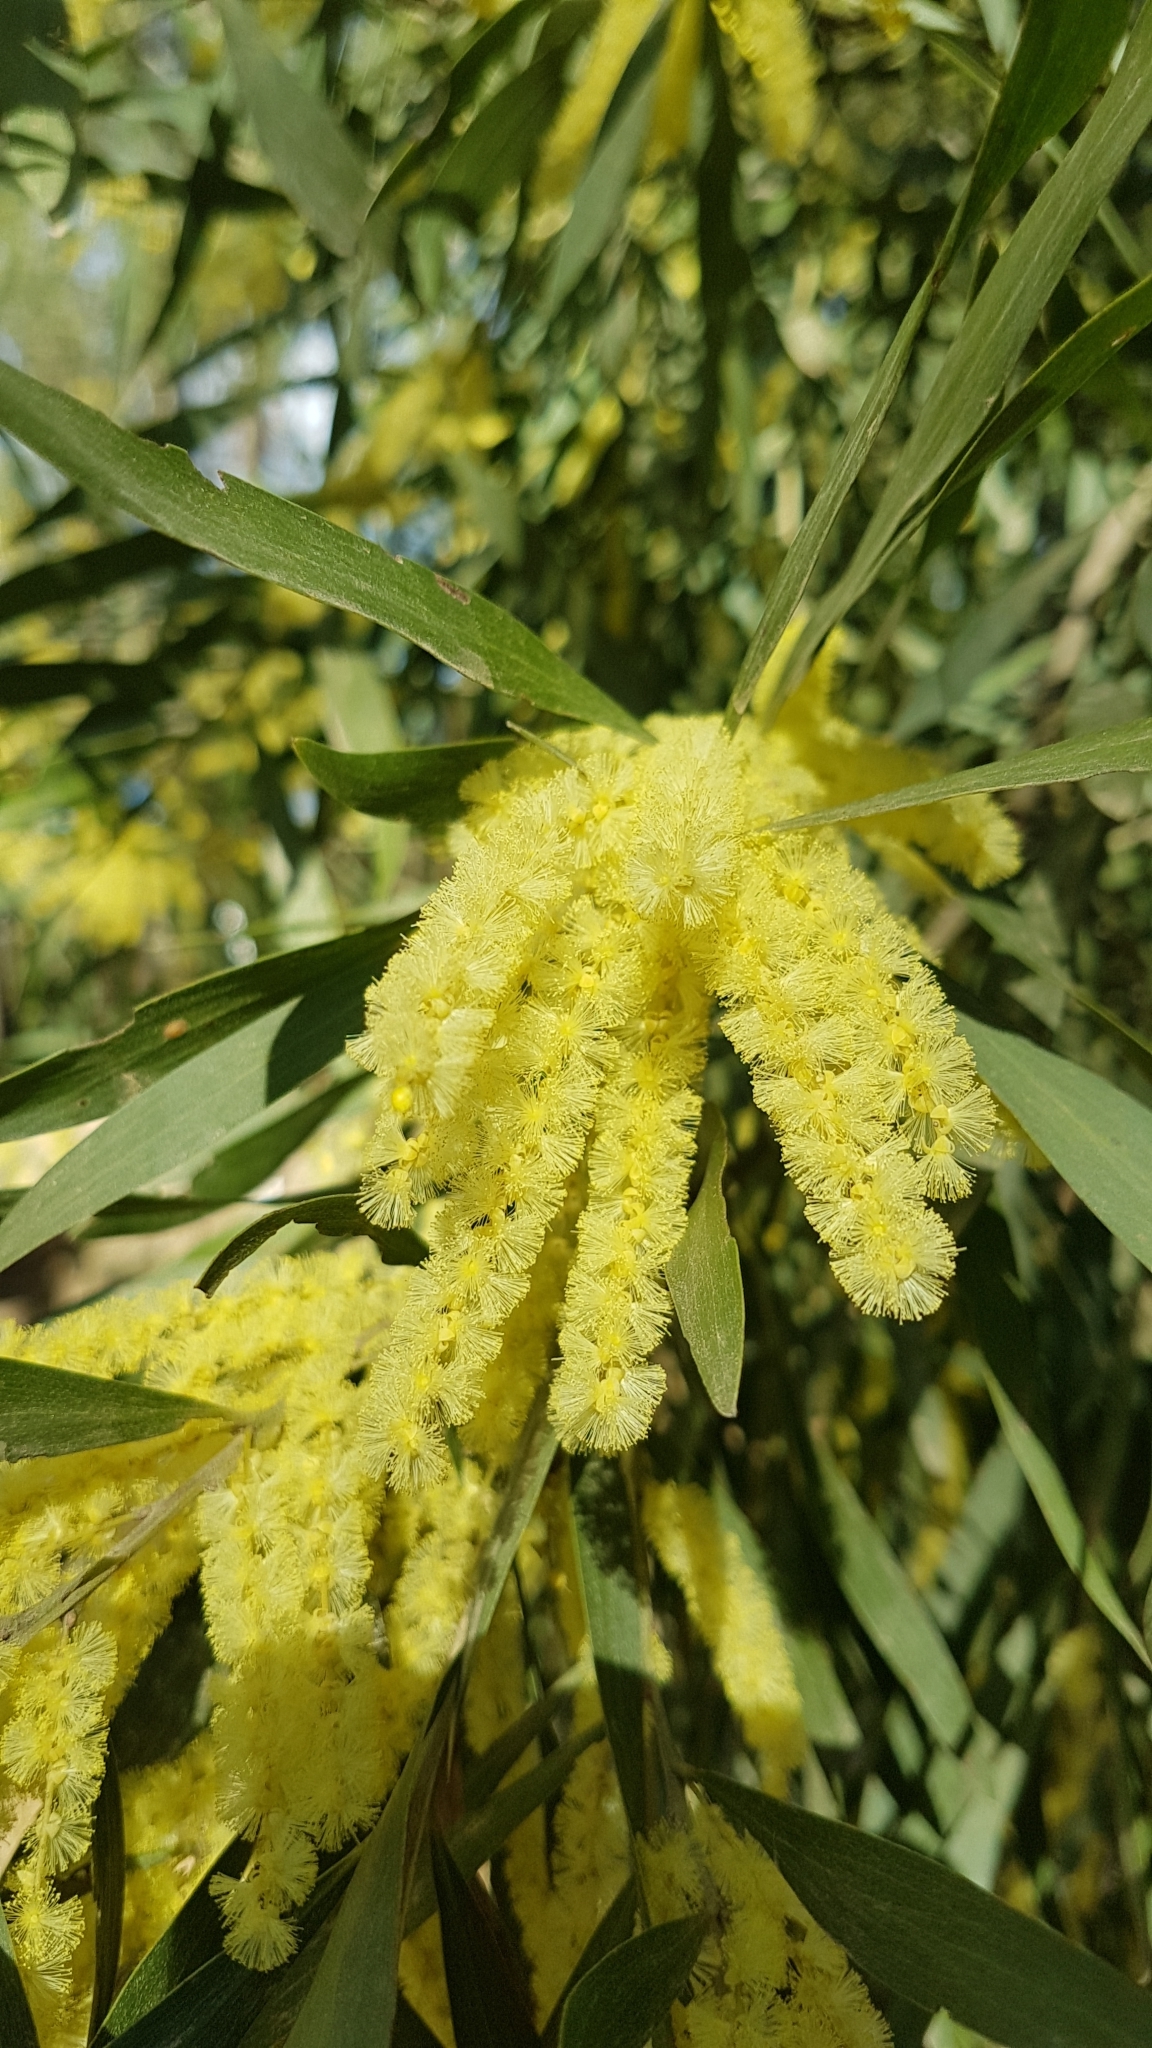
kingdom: Plantae
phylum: Tracheophyta
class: Magnoliopsida
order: Fabales
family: Fabaceae
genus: Acacia
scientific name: Acacia floribunda
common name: Gossamer wattle
